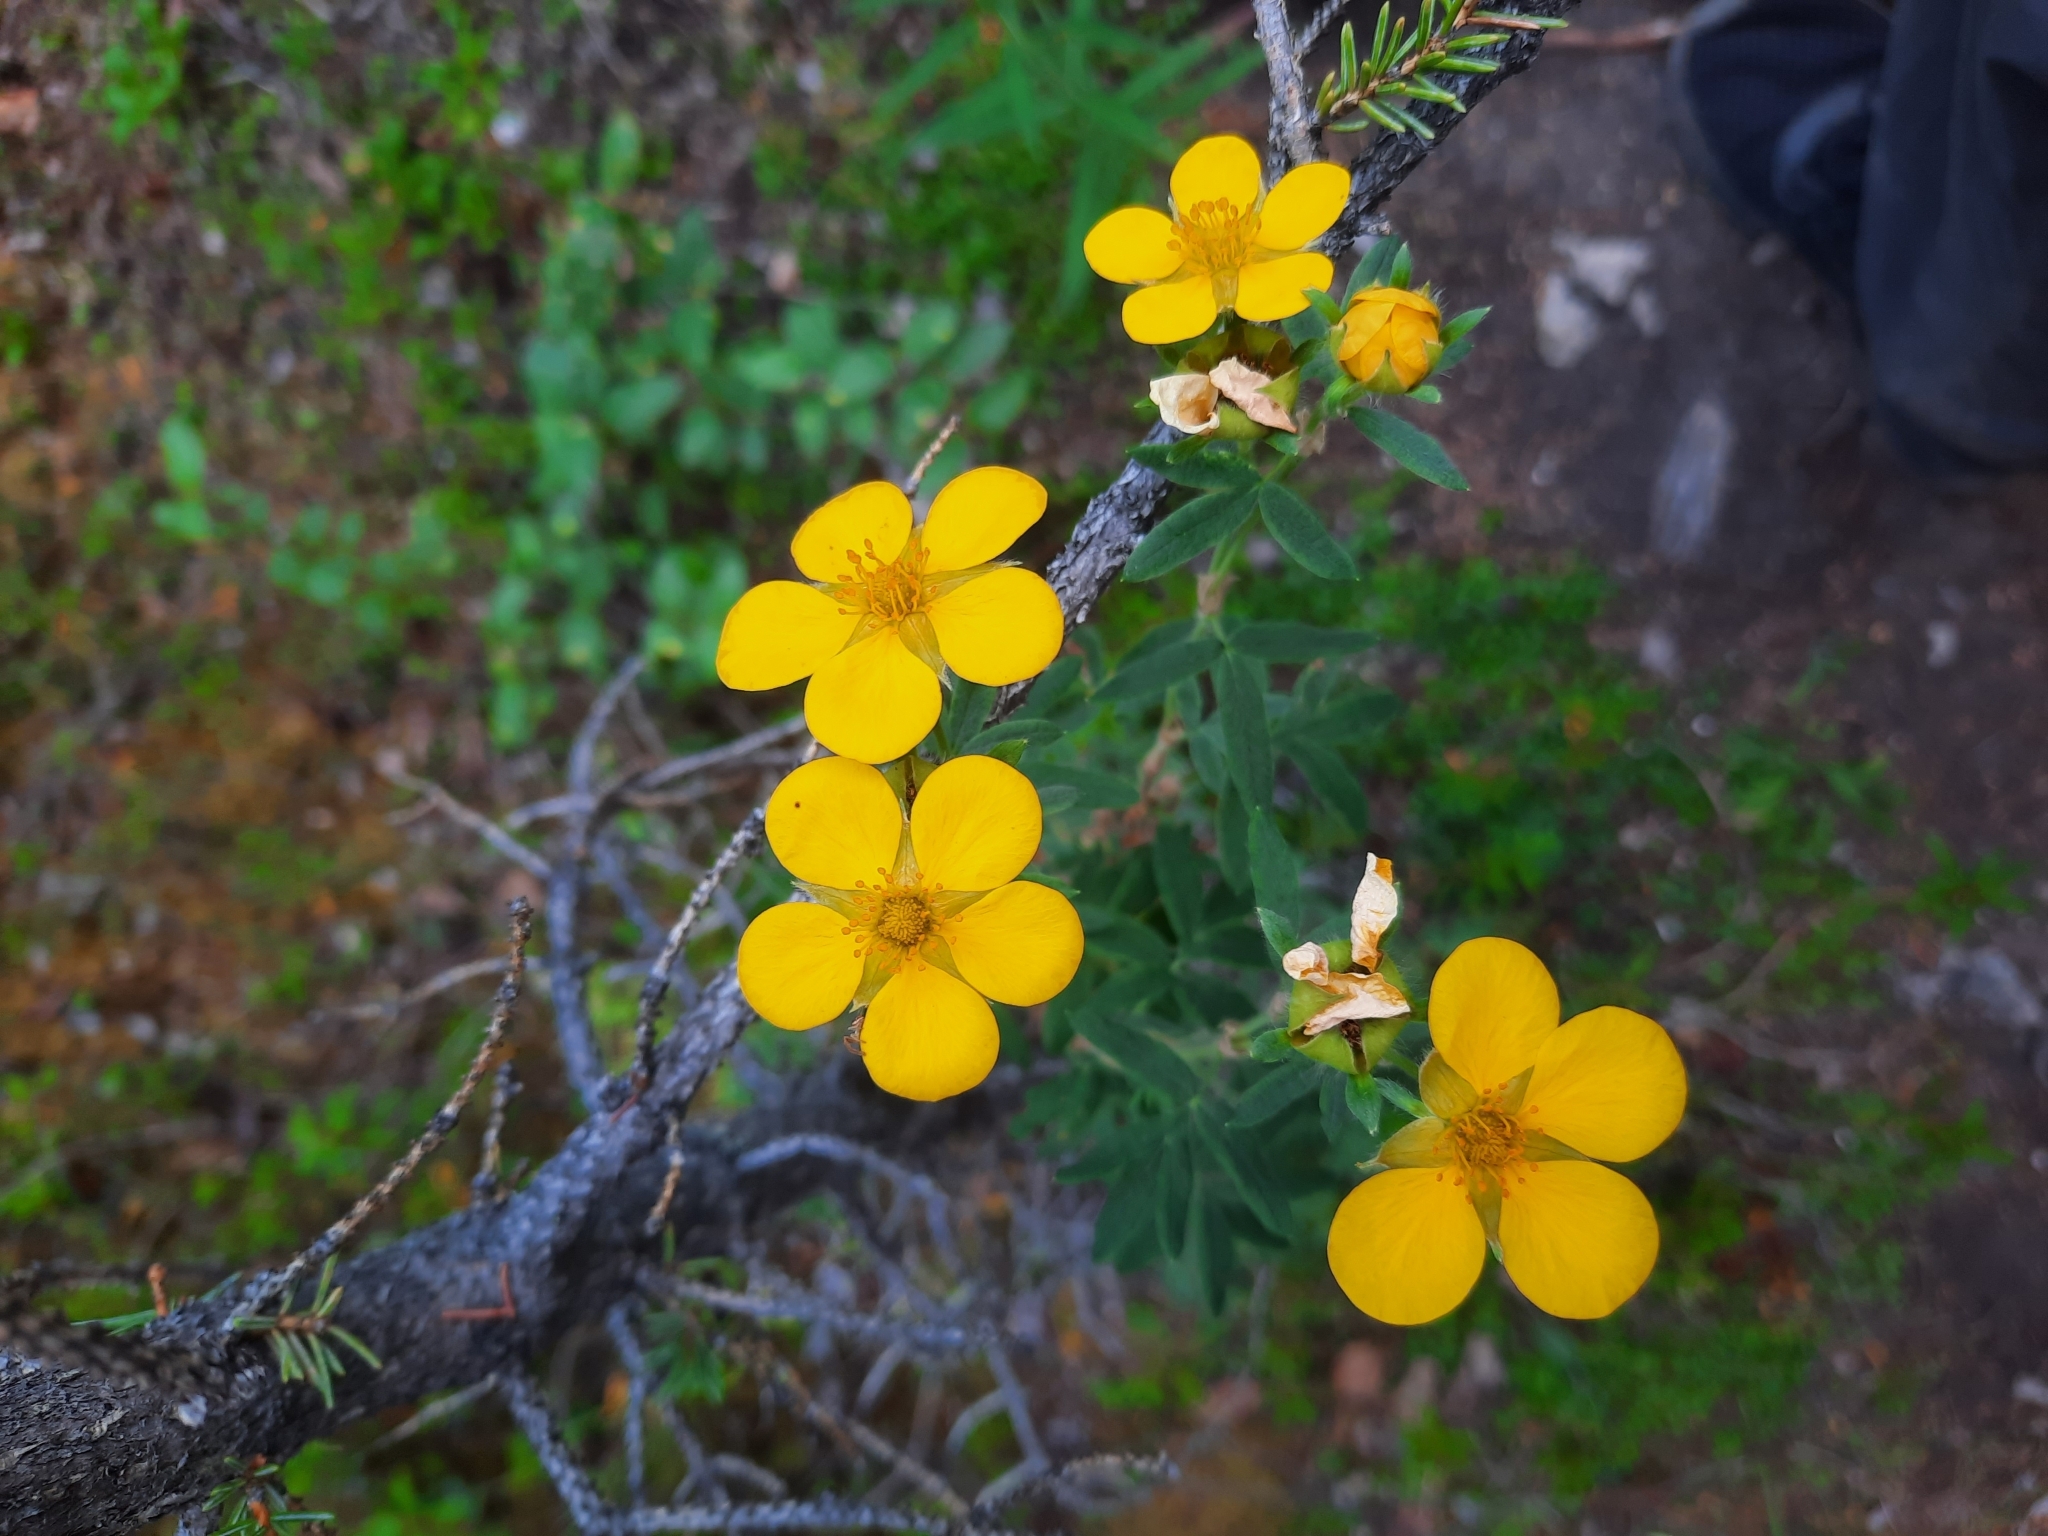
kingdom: Plantae
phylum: Tracheophyta
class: Magnoliopsida
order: Rosales
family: Rosaceae
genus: Dasiphora
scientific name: Dasiphora fruticosa
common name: Shrubby cinquefoil
